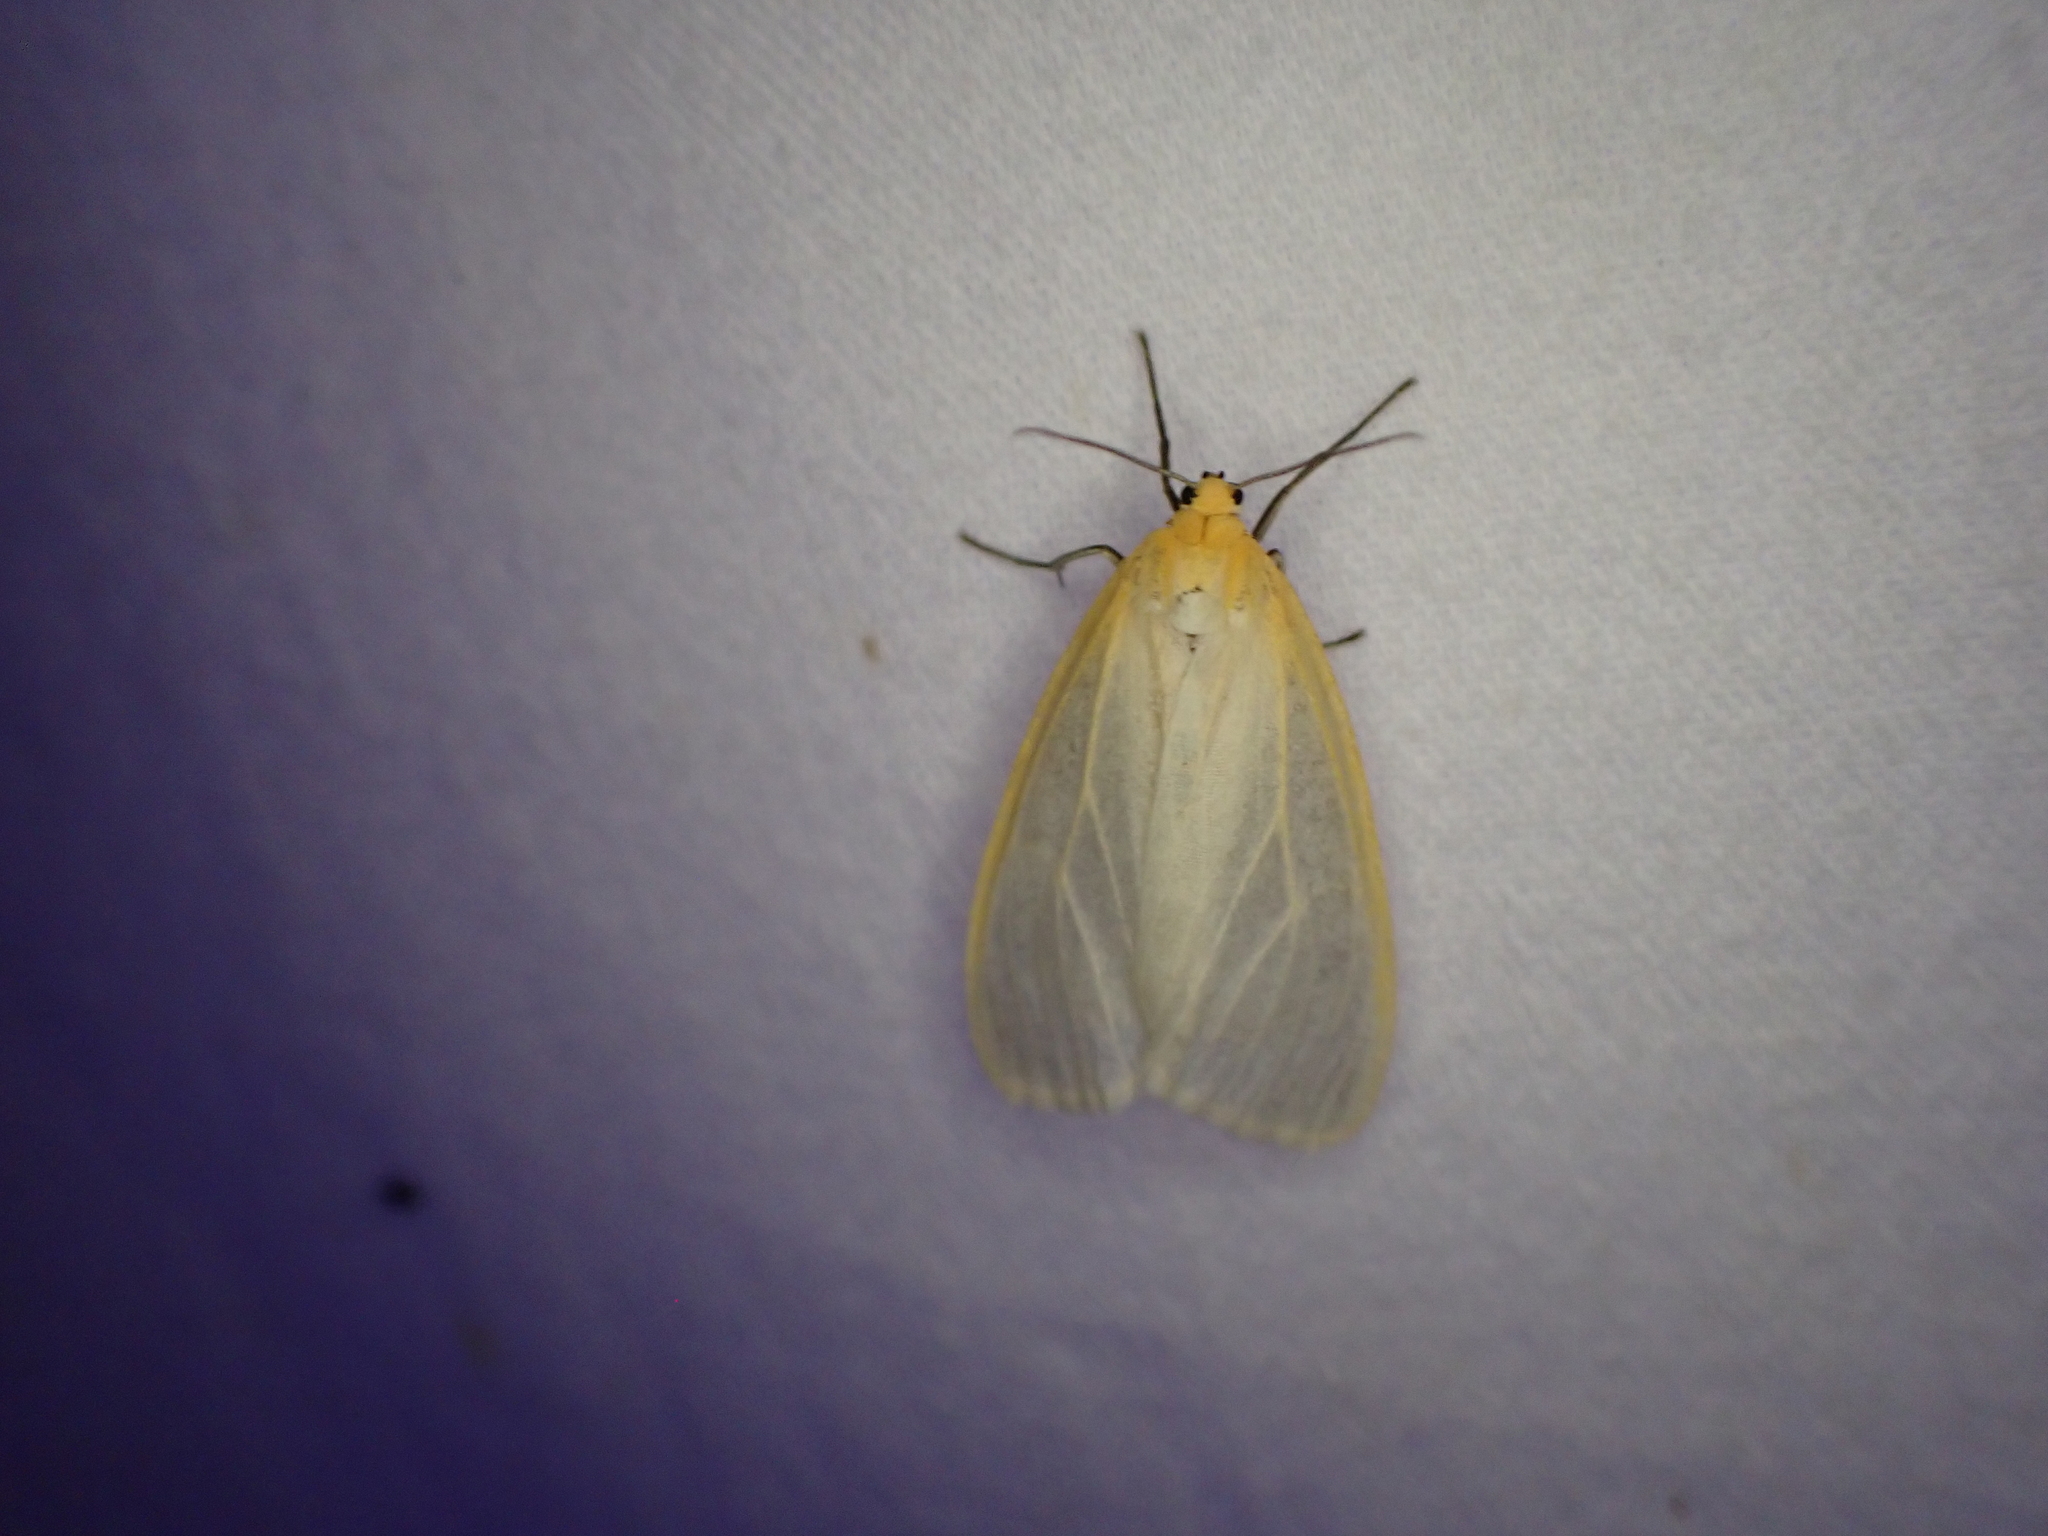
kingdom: Animalia
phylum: Arthropoda
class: Insecta
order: Lepidoptera
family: Erebidae
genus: Cycnia
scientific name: Cycnia tenera
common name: Delicate cycnia moth
